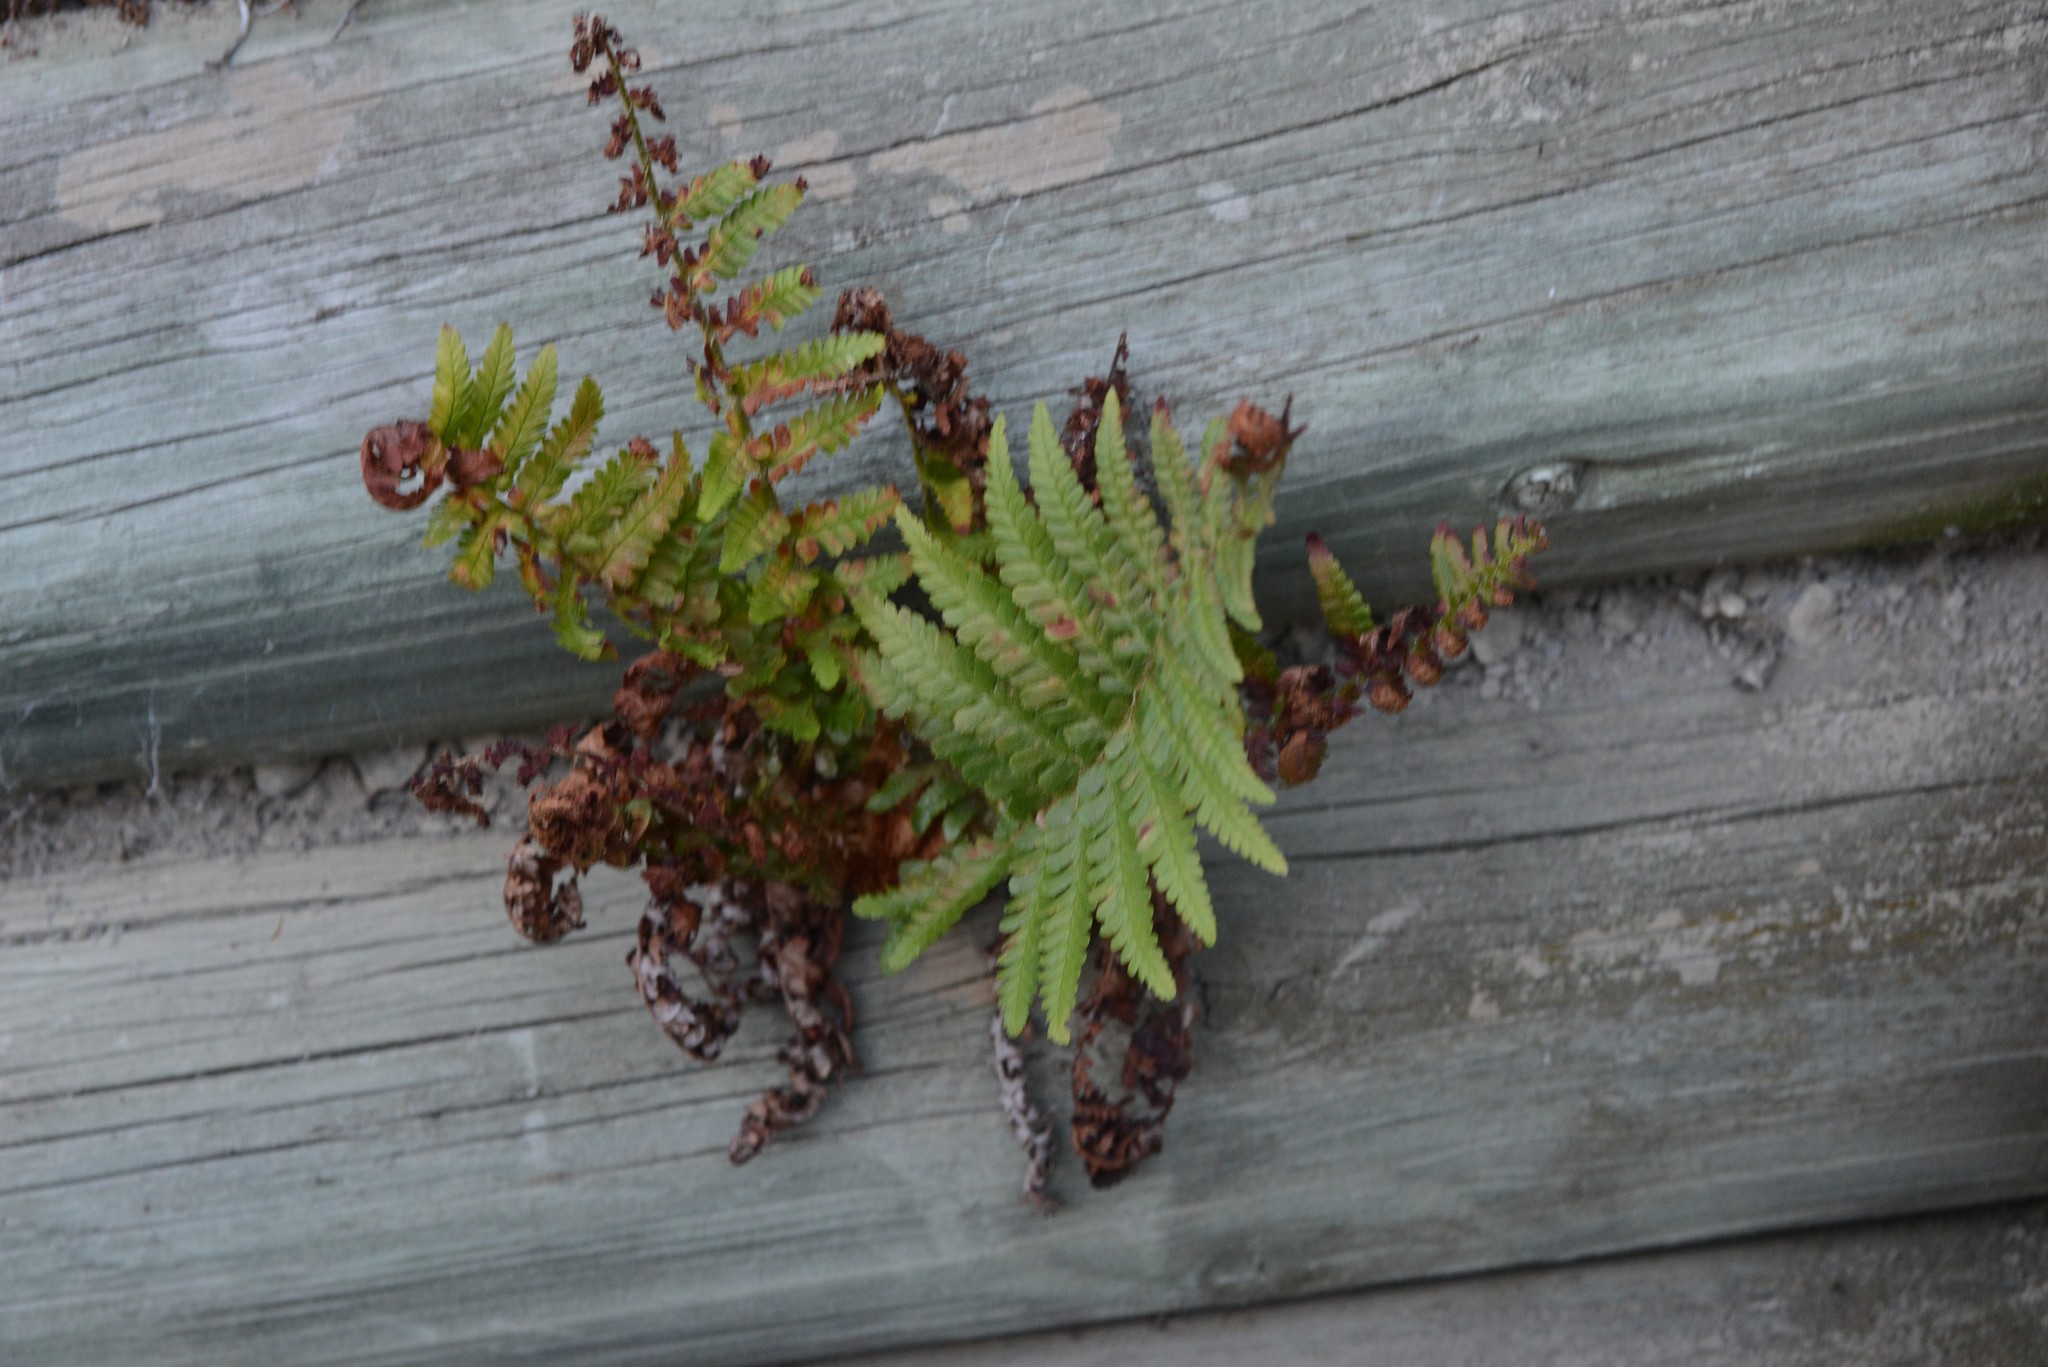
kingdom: Plantae
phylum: Tracheophyta
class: Polypodiopsida
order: Polypodiales
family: Dryopteridaceae
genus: Dryopteris
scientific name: Dryopteris filix-mas
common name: Male fern
